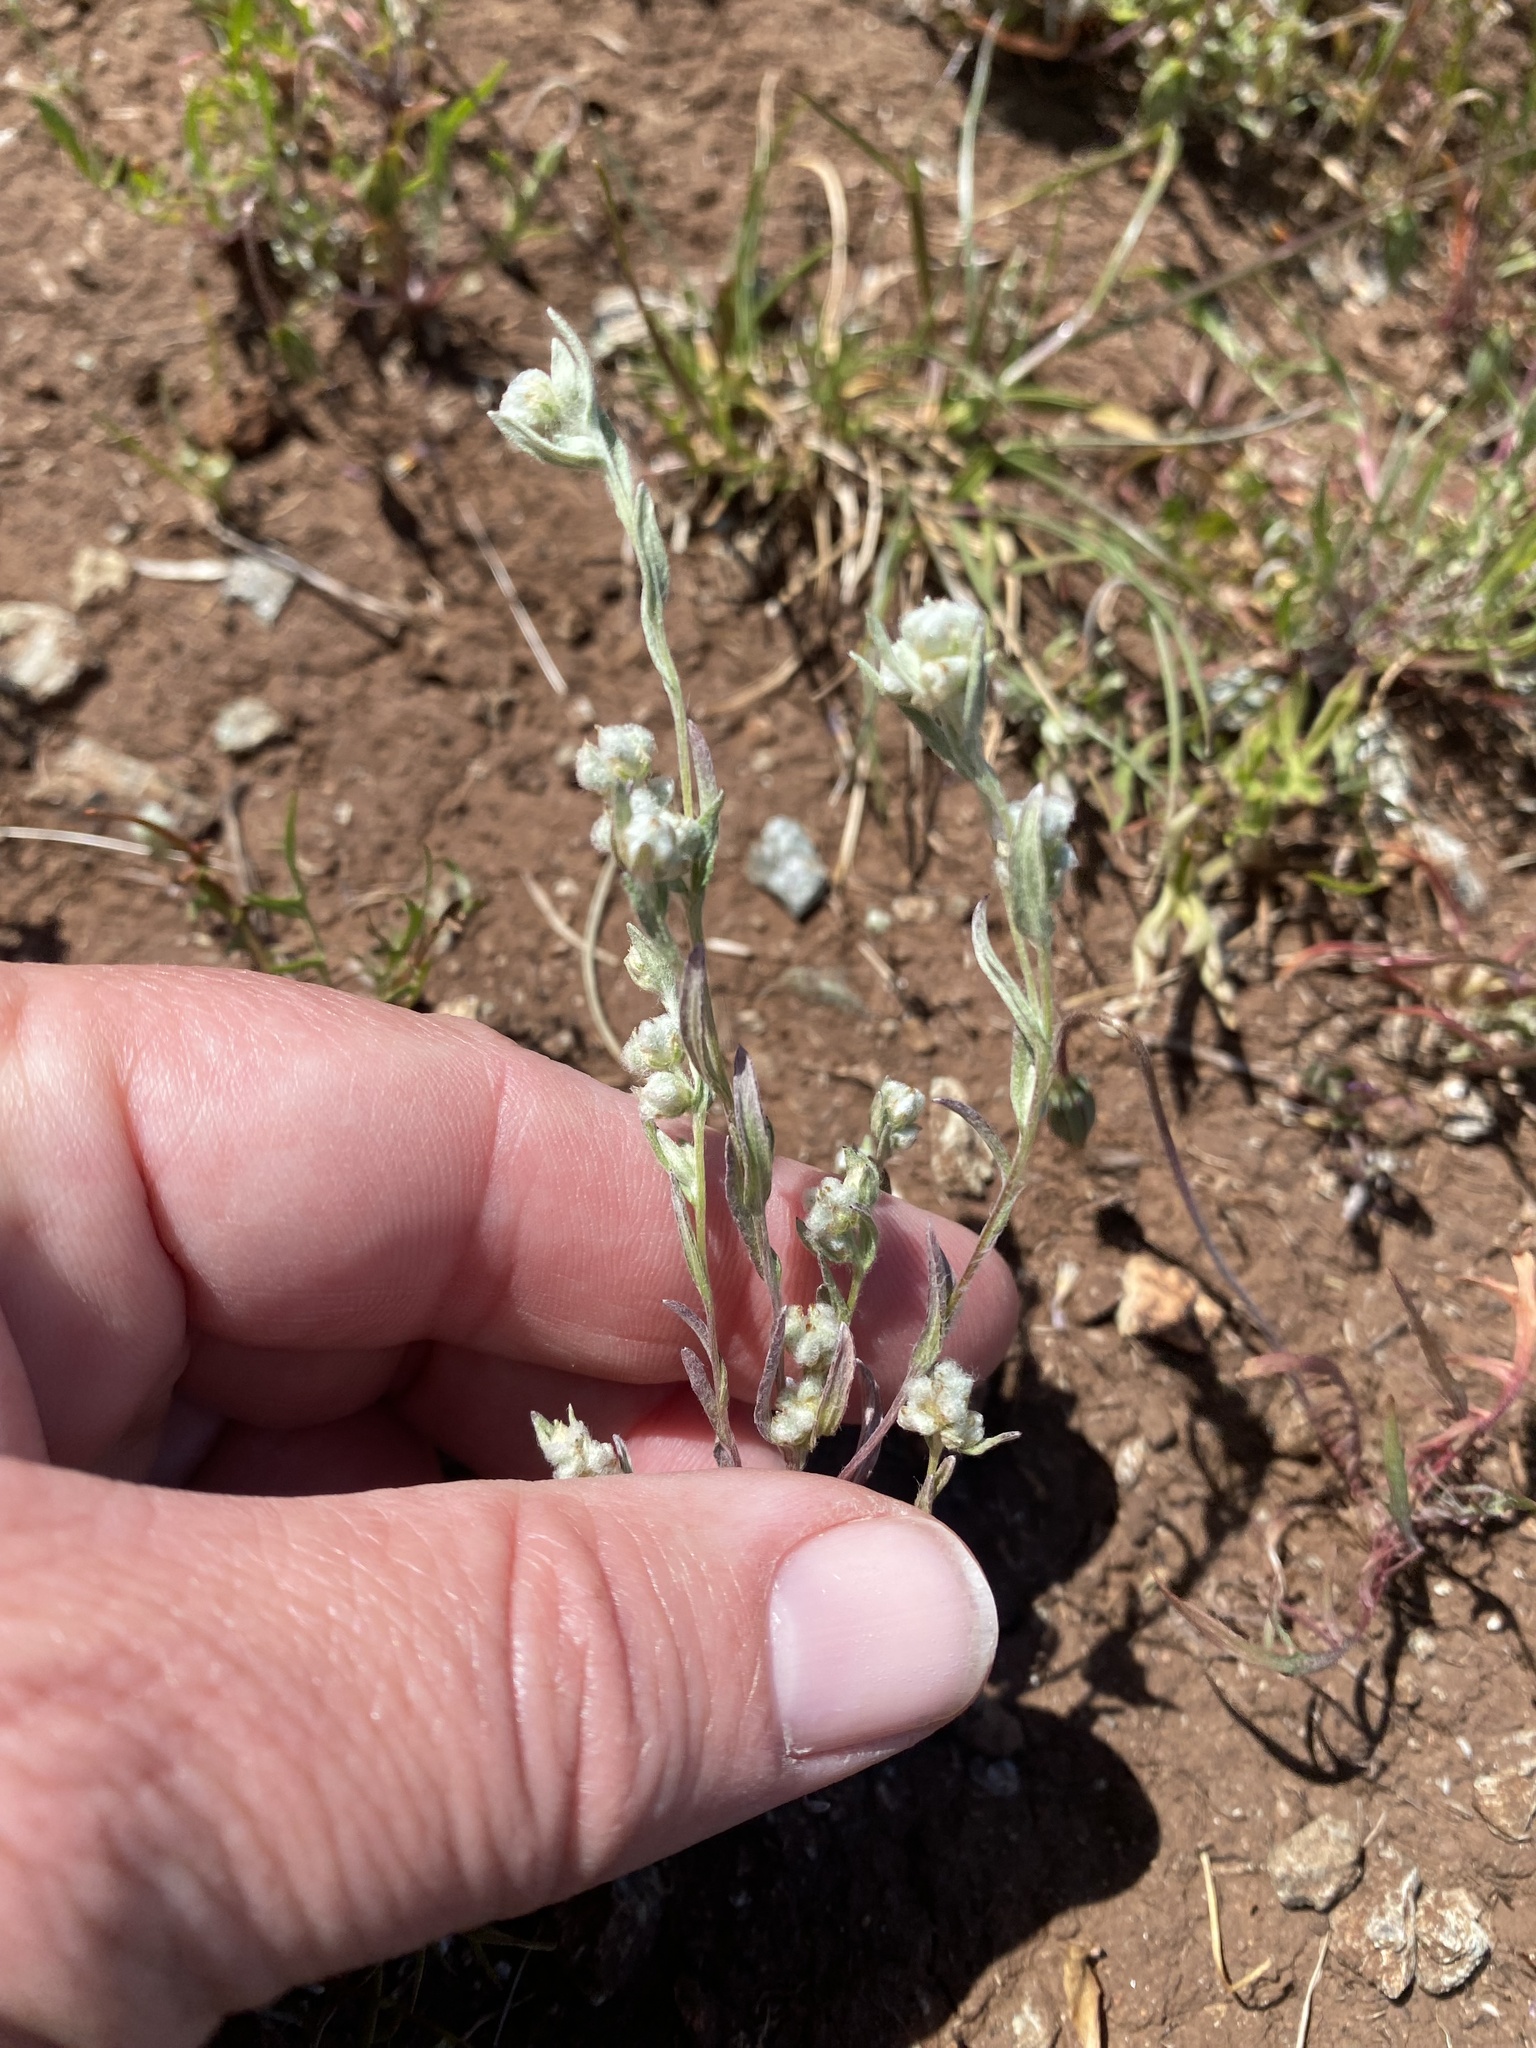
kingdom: Plantae
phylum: Tracheophyta
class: Magnoliopsida
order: Asterales
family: Asteraceae
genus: Bombycilaena
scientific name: Bombycilaena californica
